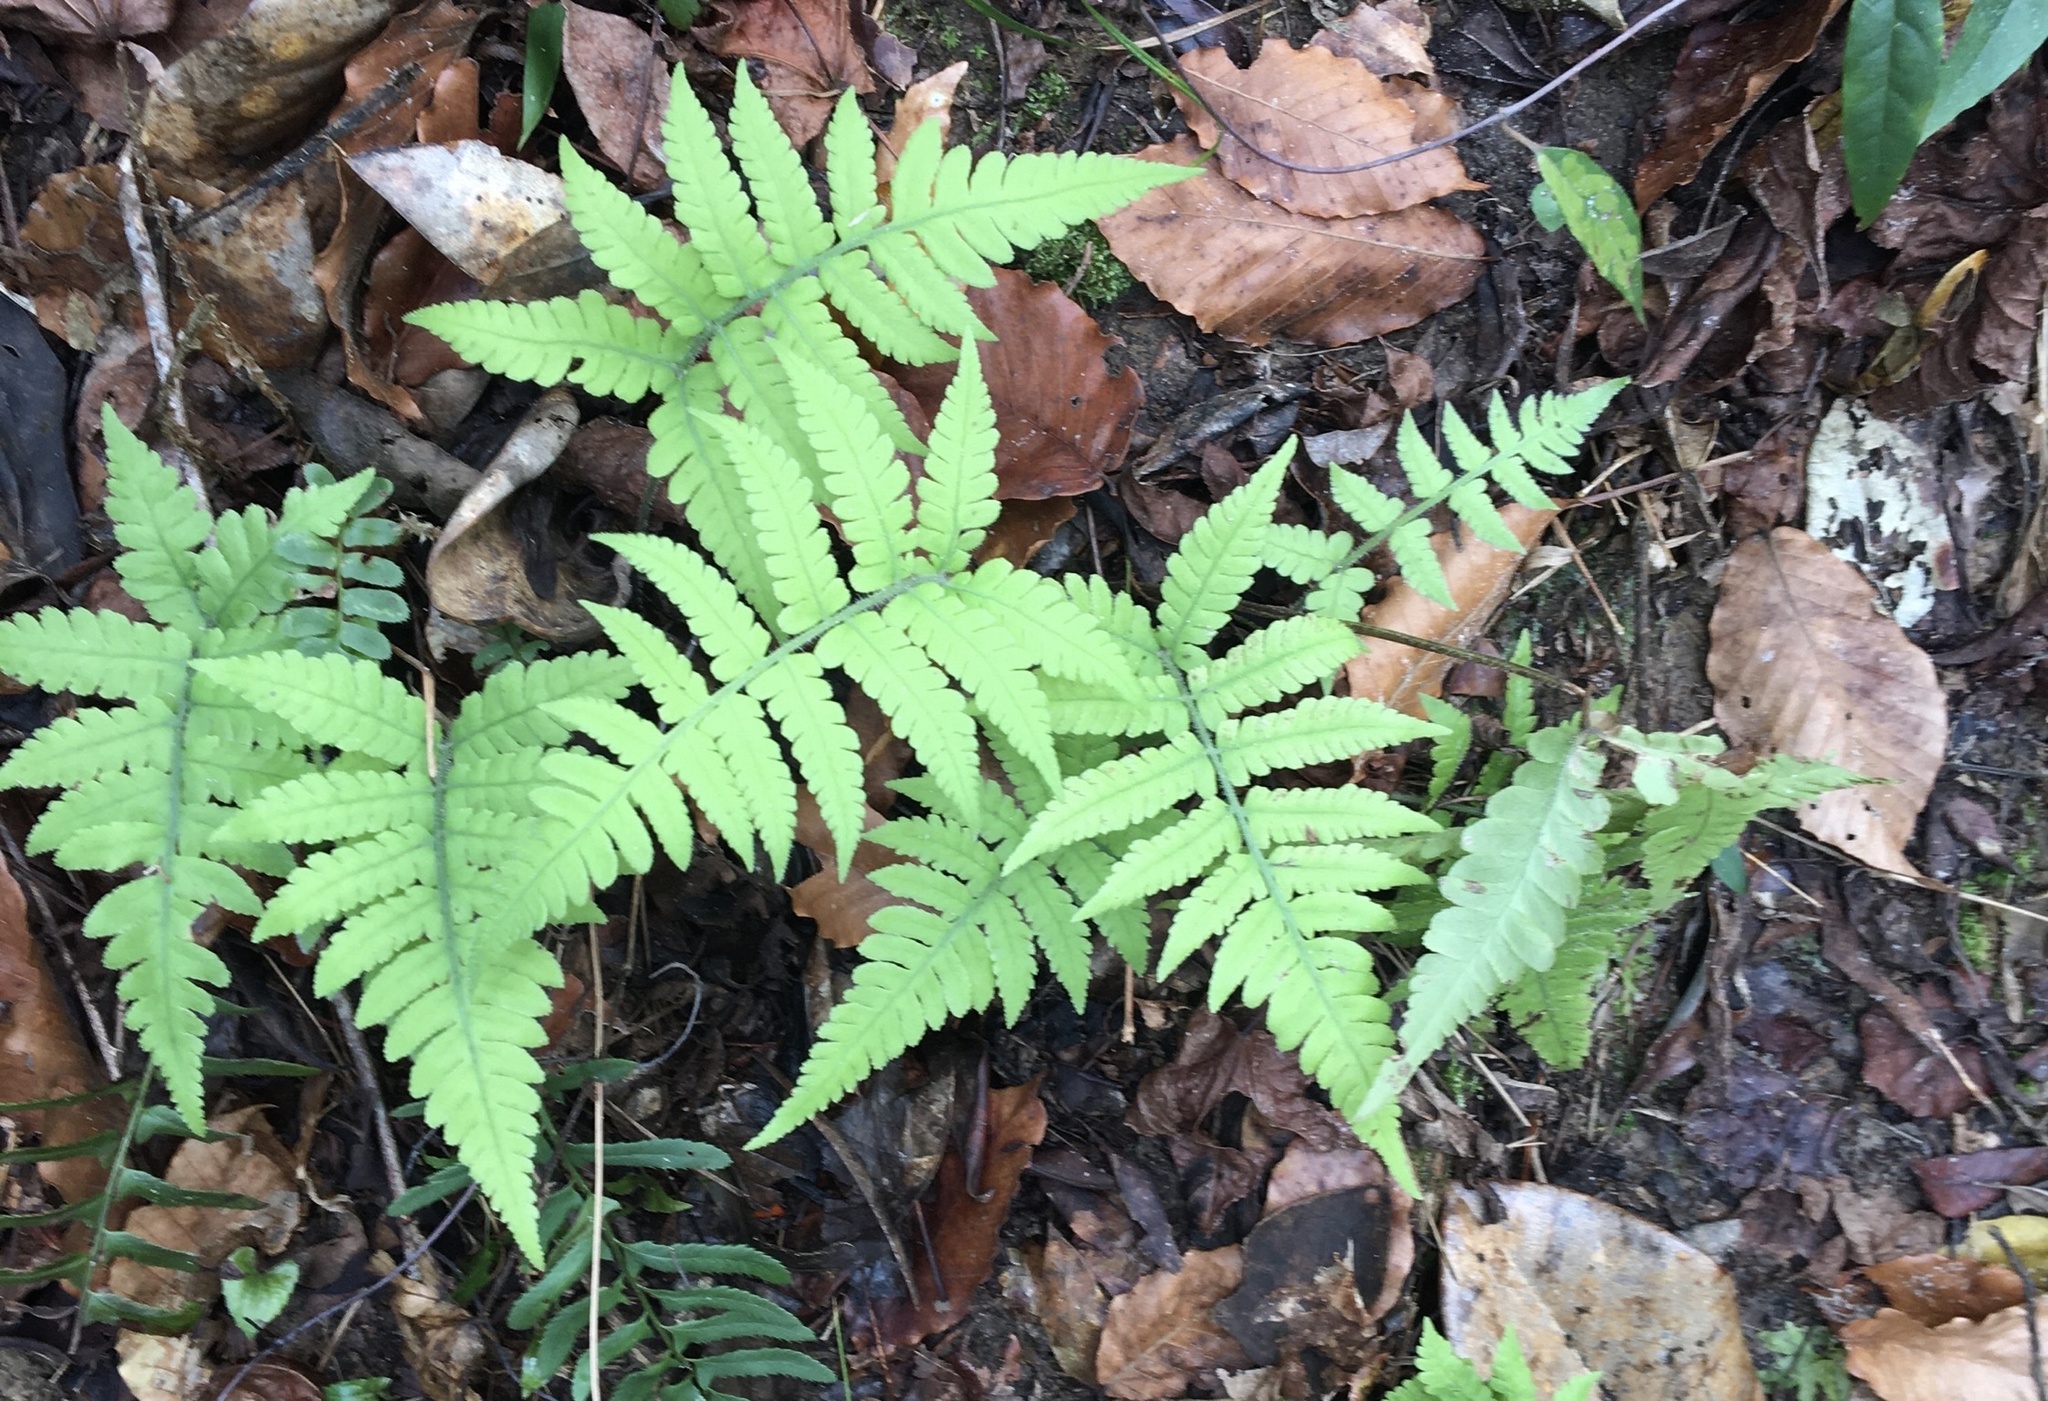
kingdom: Plantae
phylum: Tracheophyta
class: Polypodiopsida
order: Polypodiales
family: Athyriaceae
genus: Deparia
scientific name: Deparia petersenii
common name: Japanese false spleenwort
